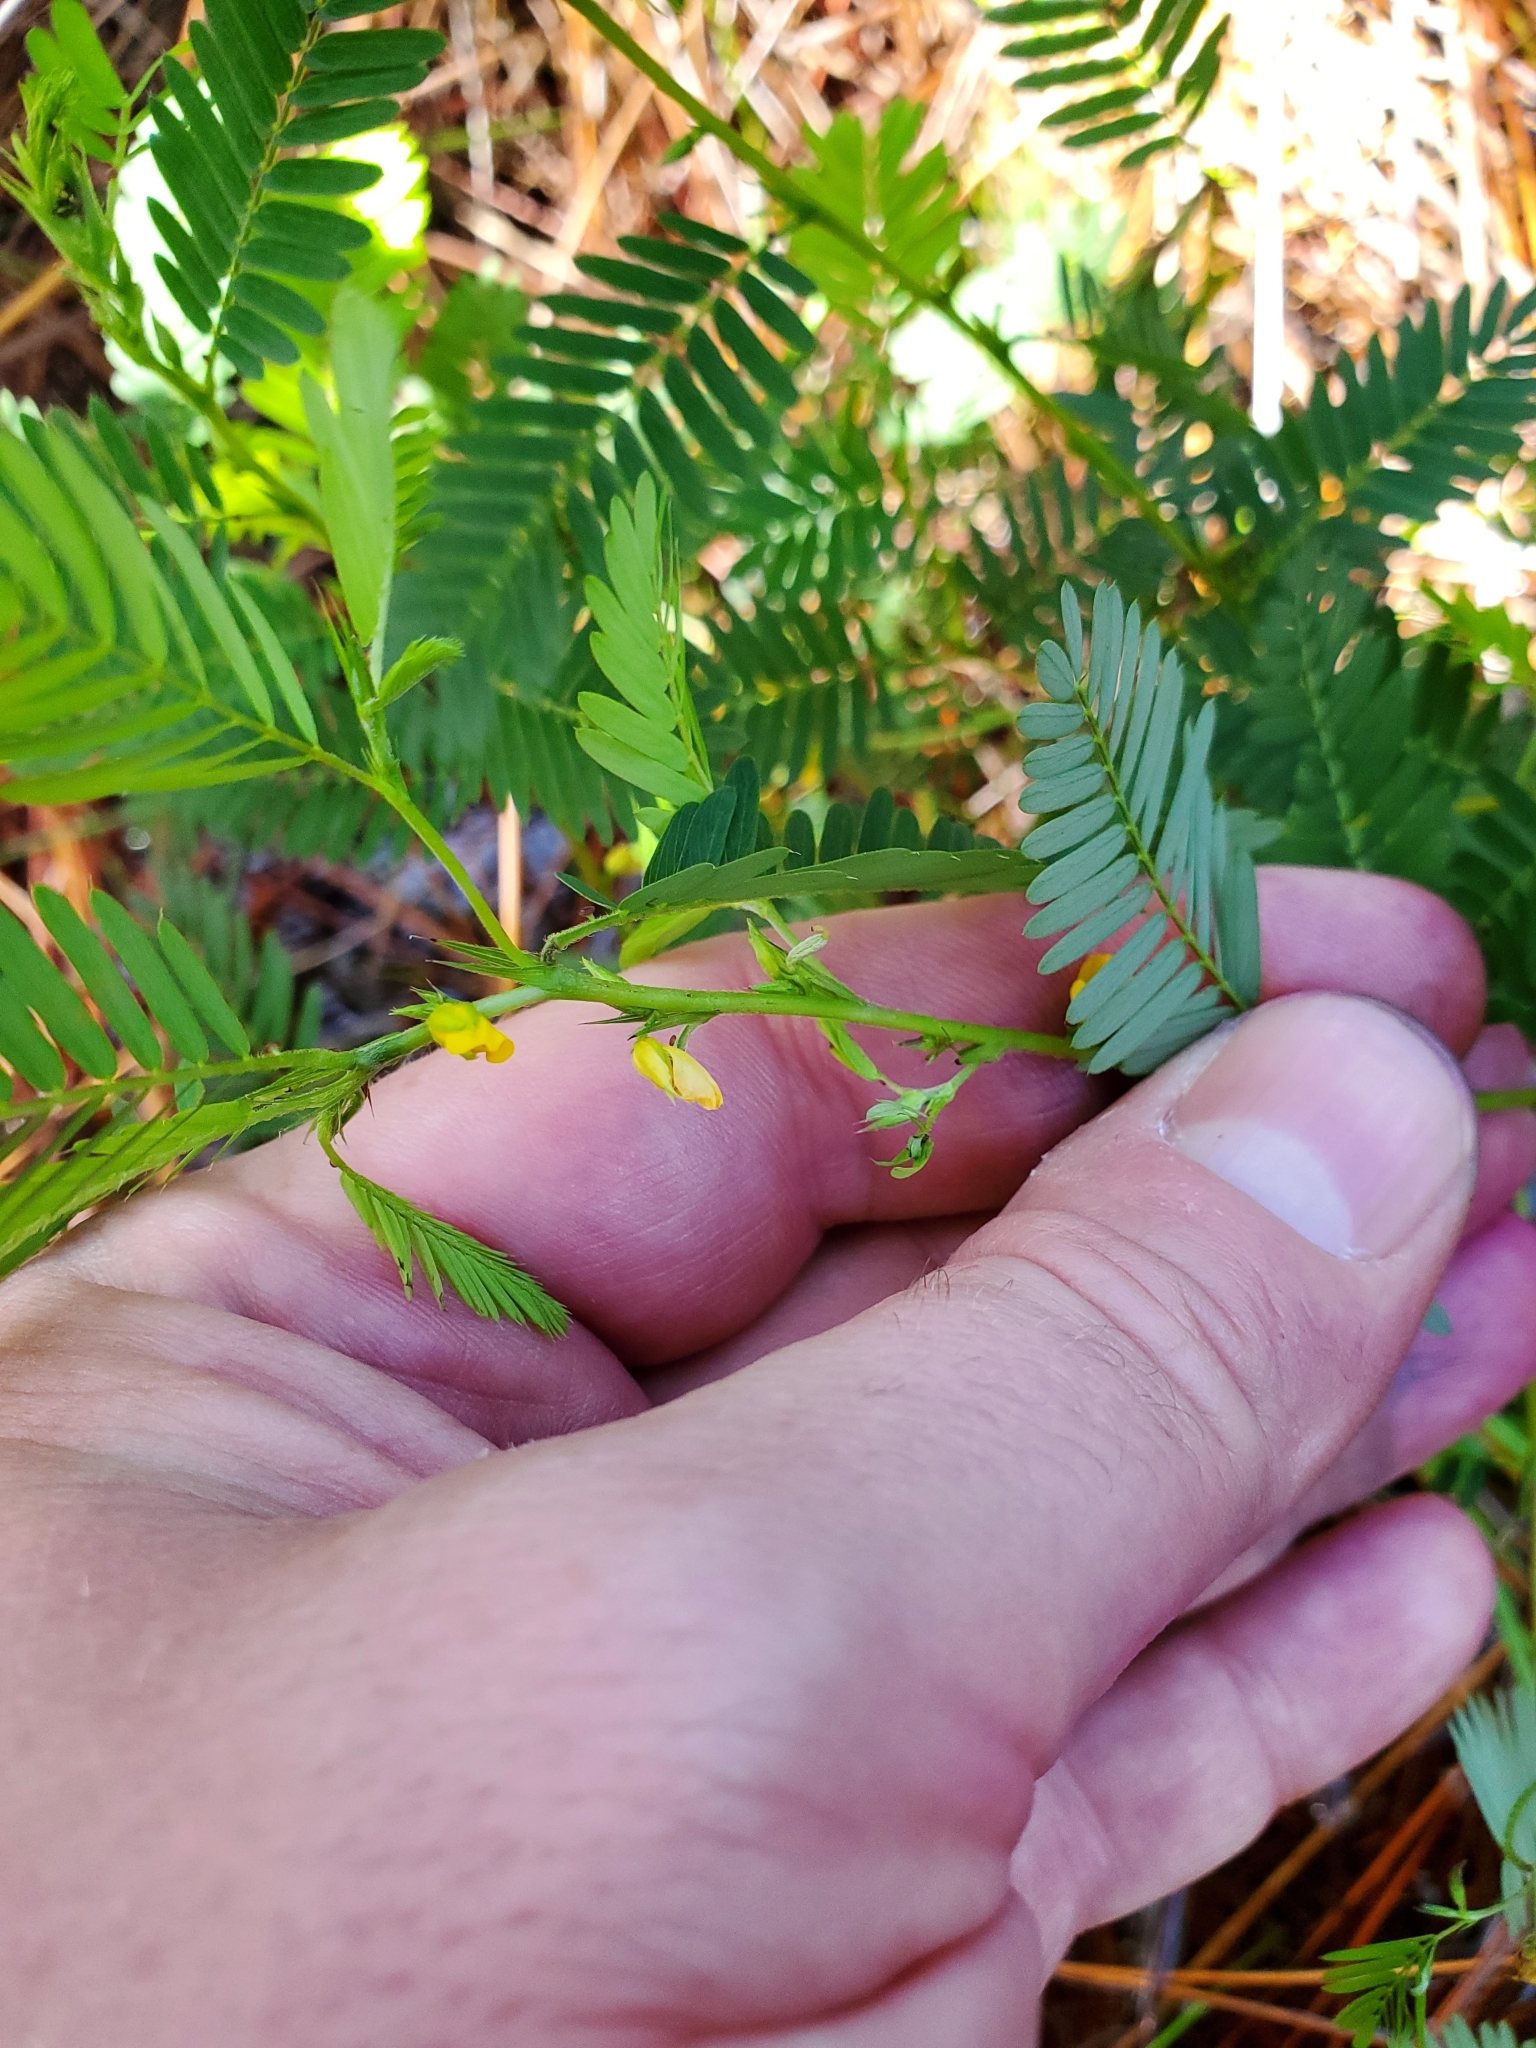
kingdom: Plantae
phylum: Tracheophyta
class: Magnoliopsida
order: Fabales
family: Fabaceae
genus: Chamaecrista
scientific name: Chamaecrista nictitans
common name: Sensitive cassia
